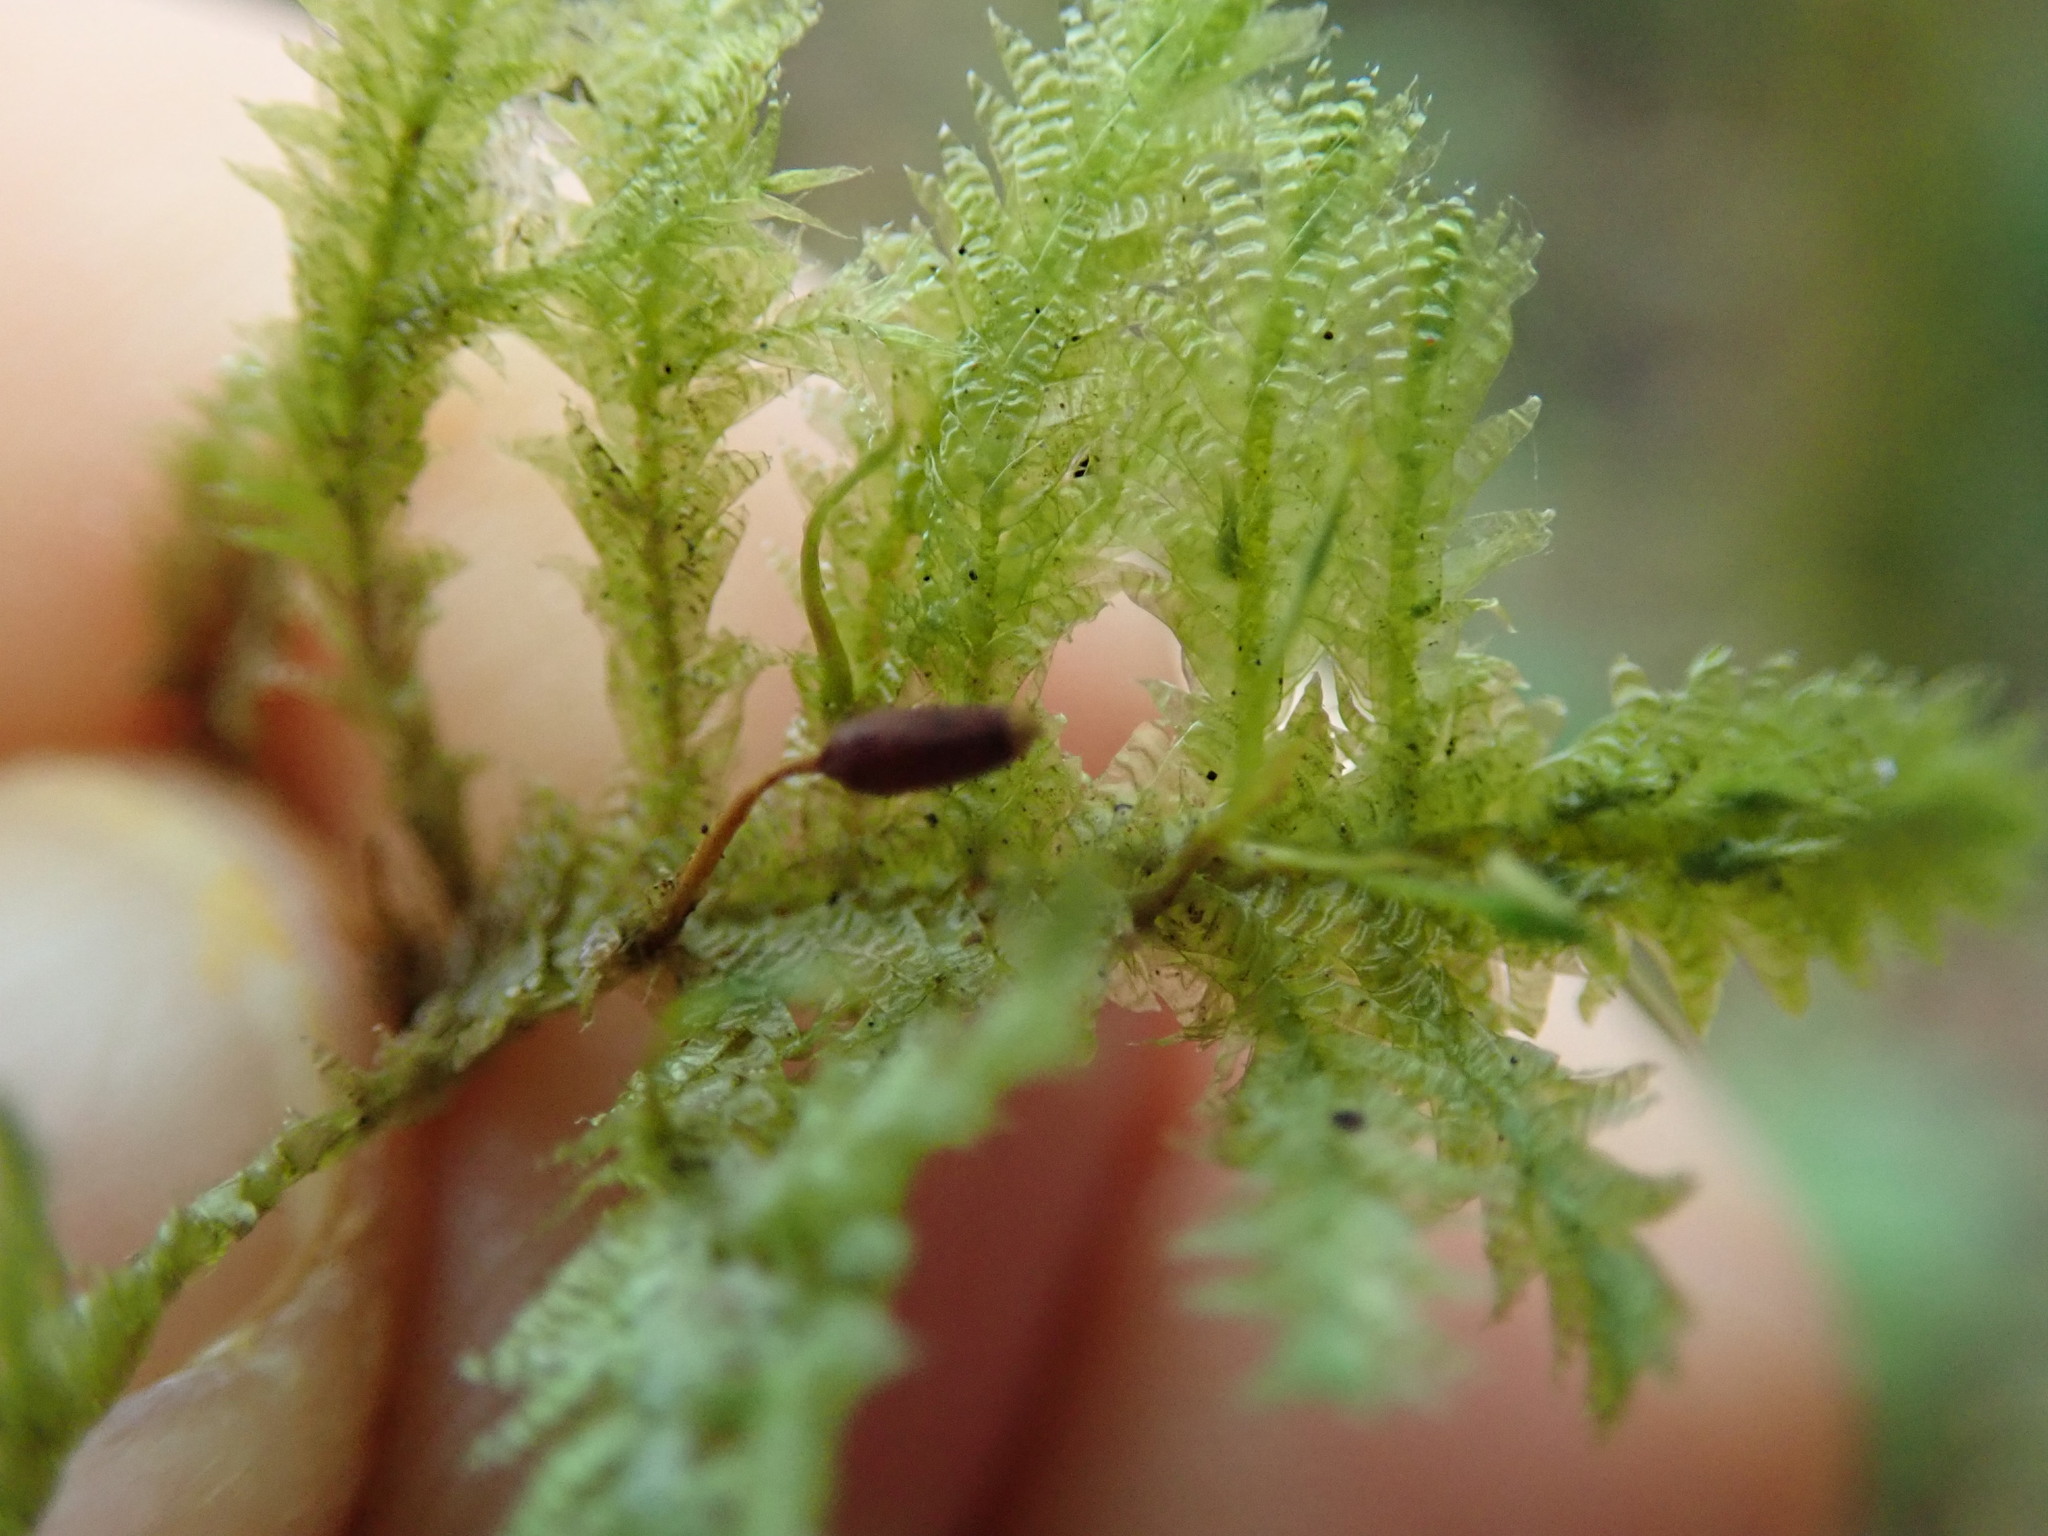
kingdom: Plantae
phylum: Bryophyta
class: Bryopsida
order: Hypnales
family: Neckeraceae
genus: Neckera
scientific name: Neckera douglasii
